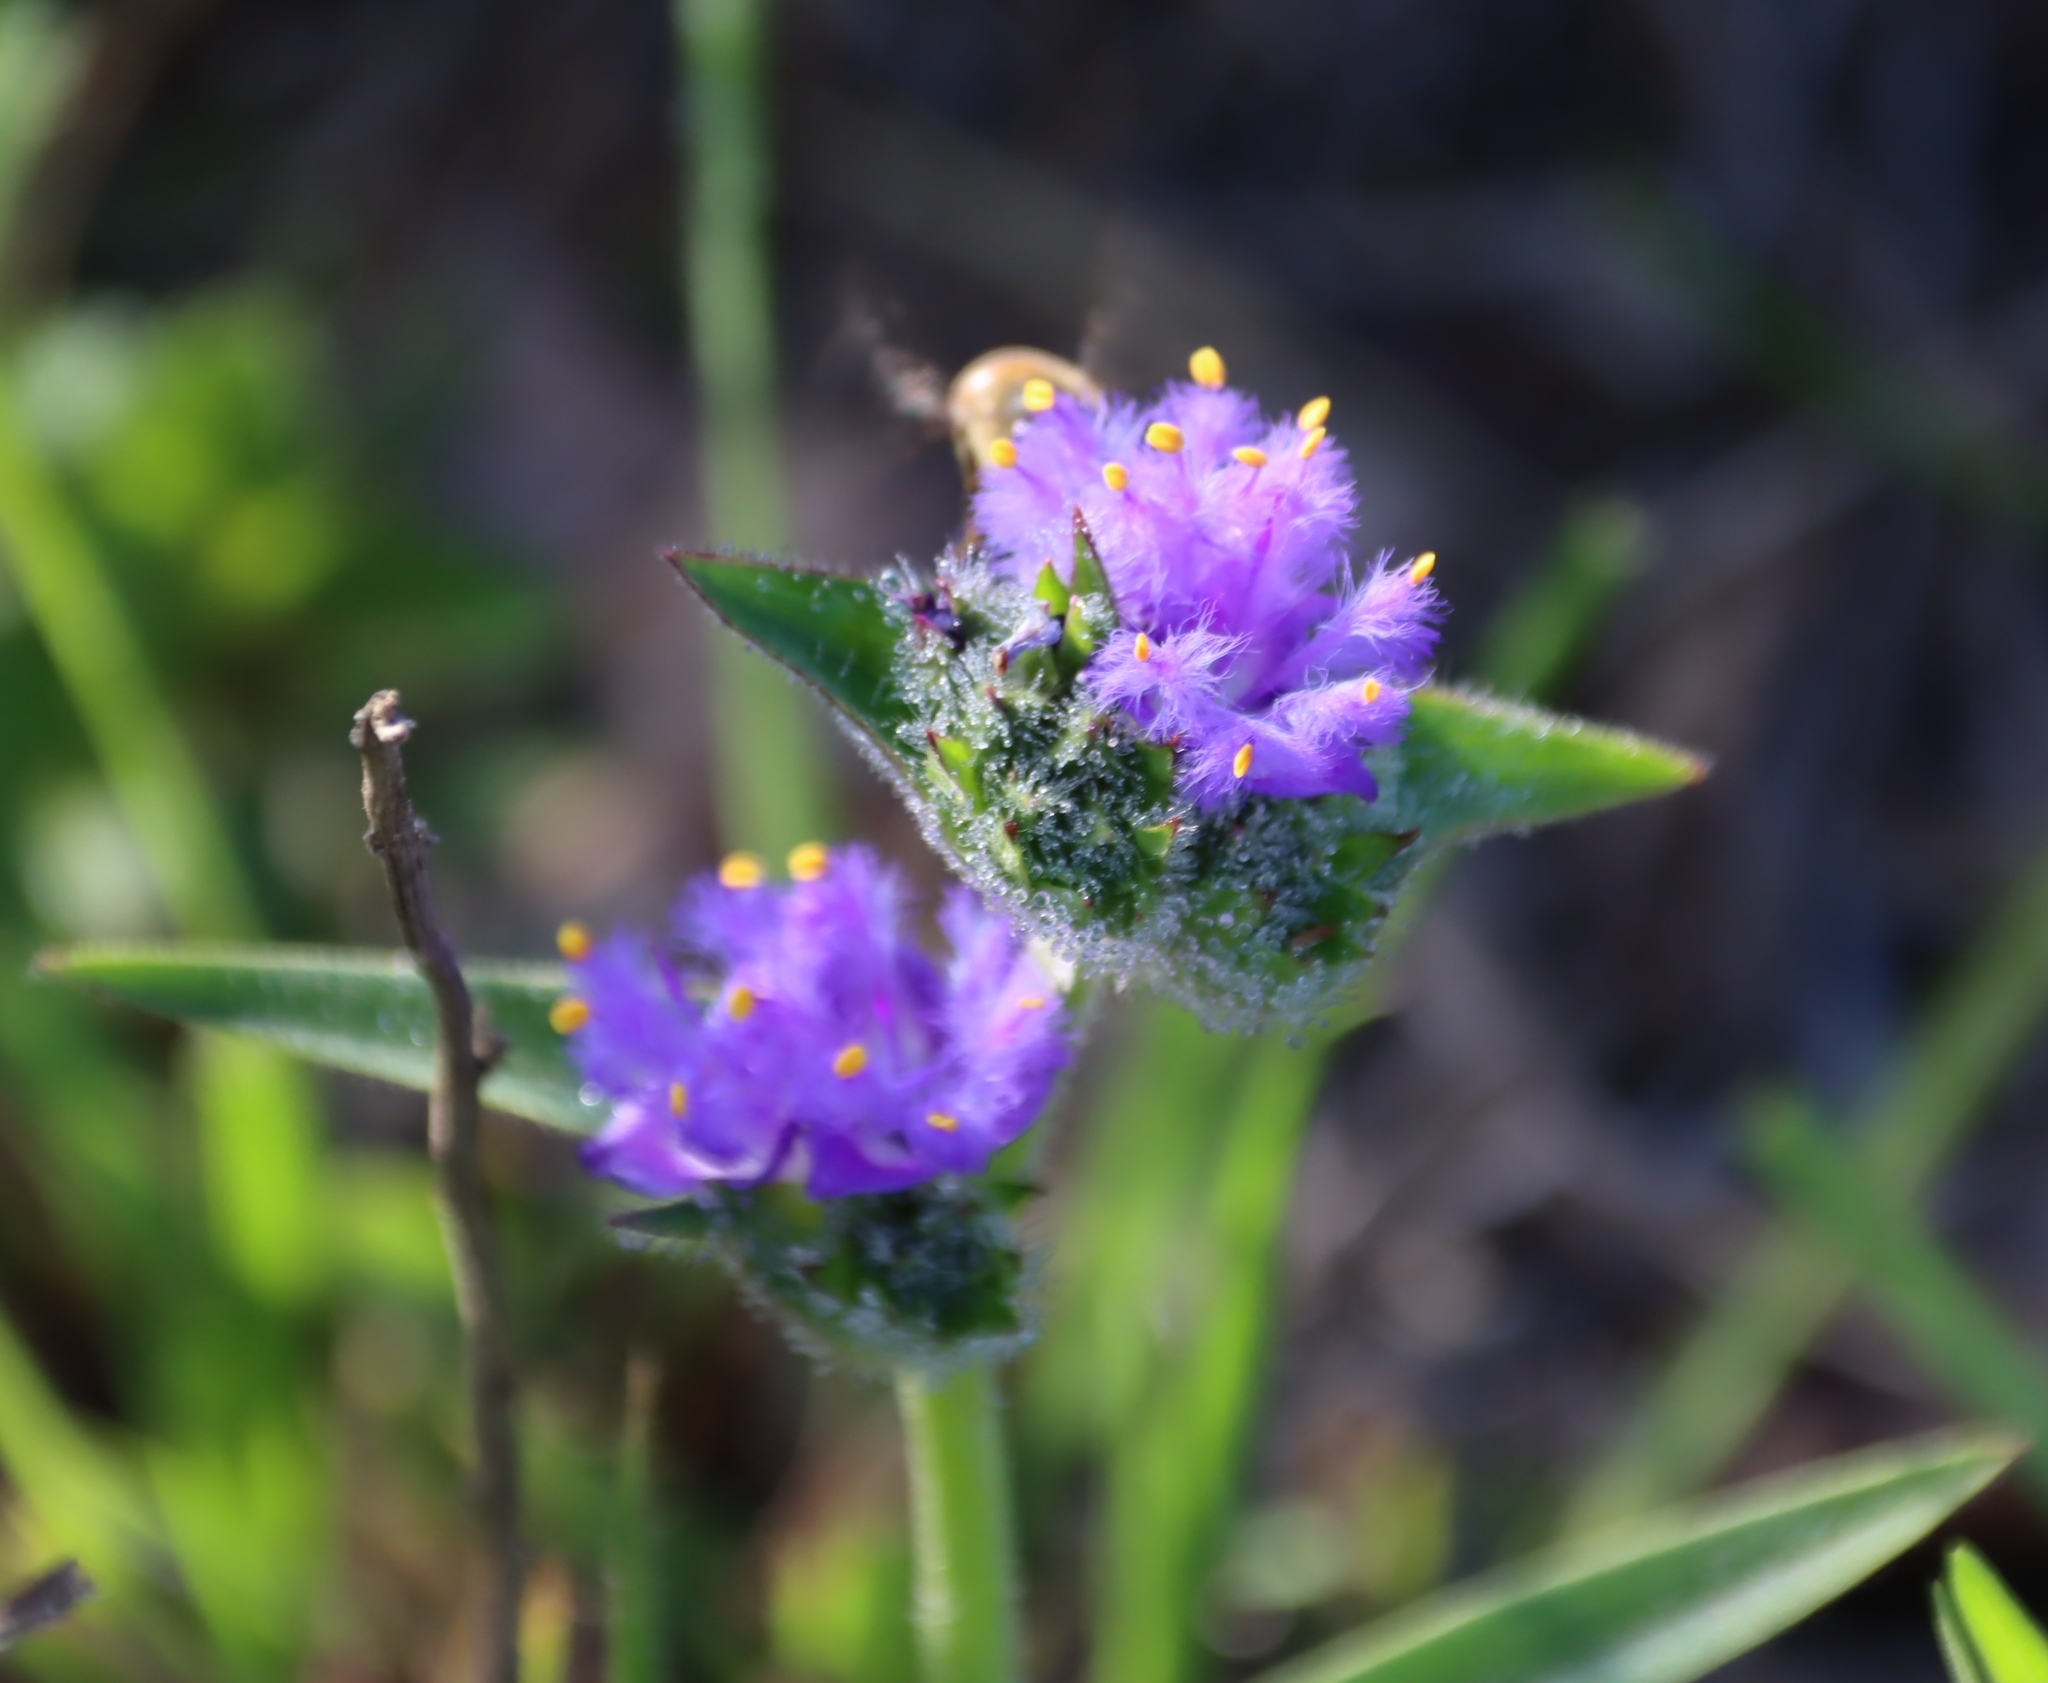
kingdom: Plantae
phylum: Tracheophyta
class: Liliopsida
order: Commelinales
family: Commelinaceae
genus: Cyanotis
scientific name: Cyanotis speciosa
